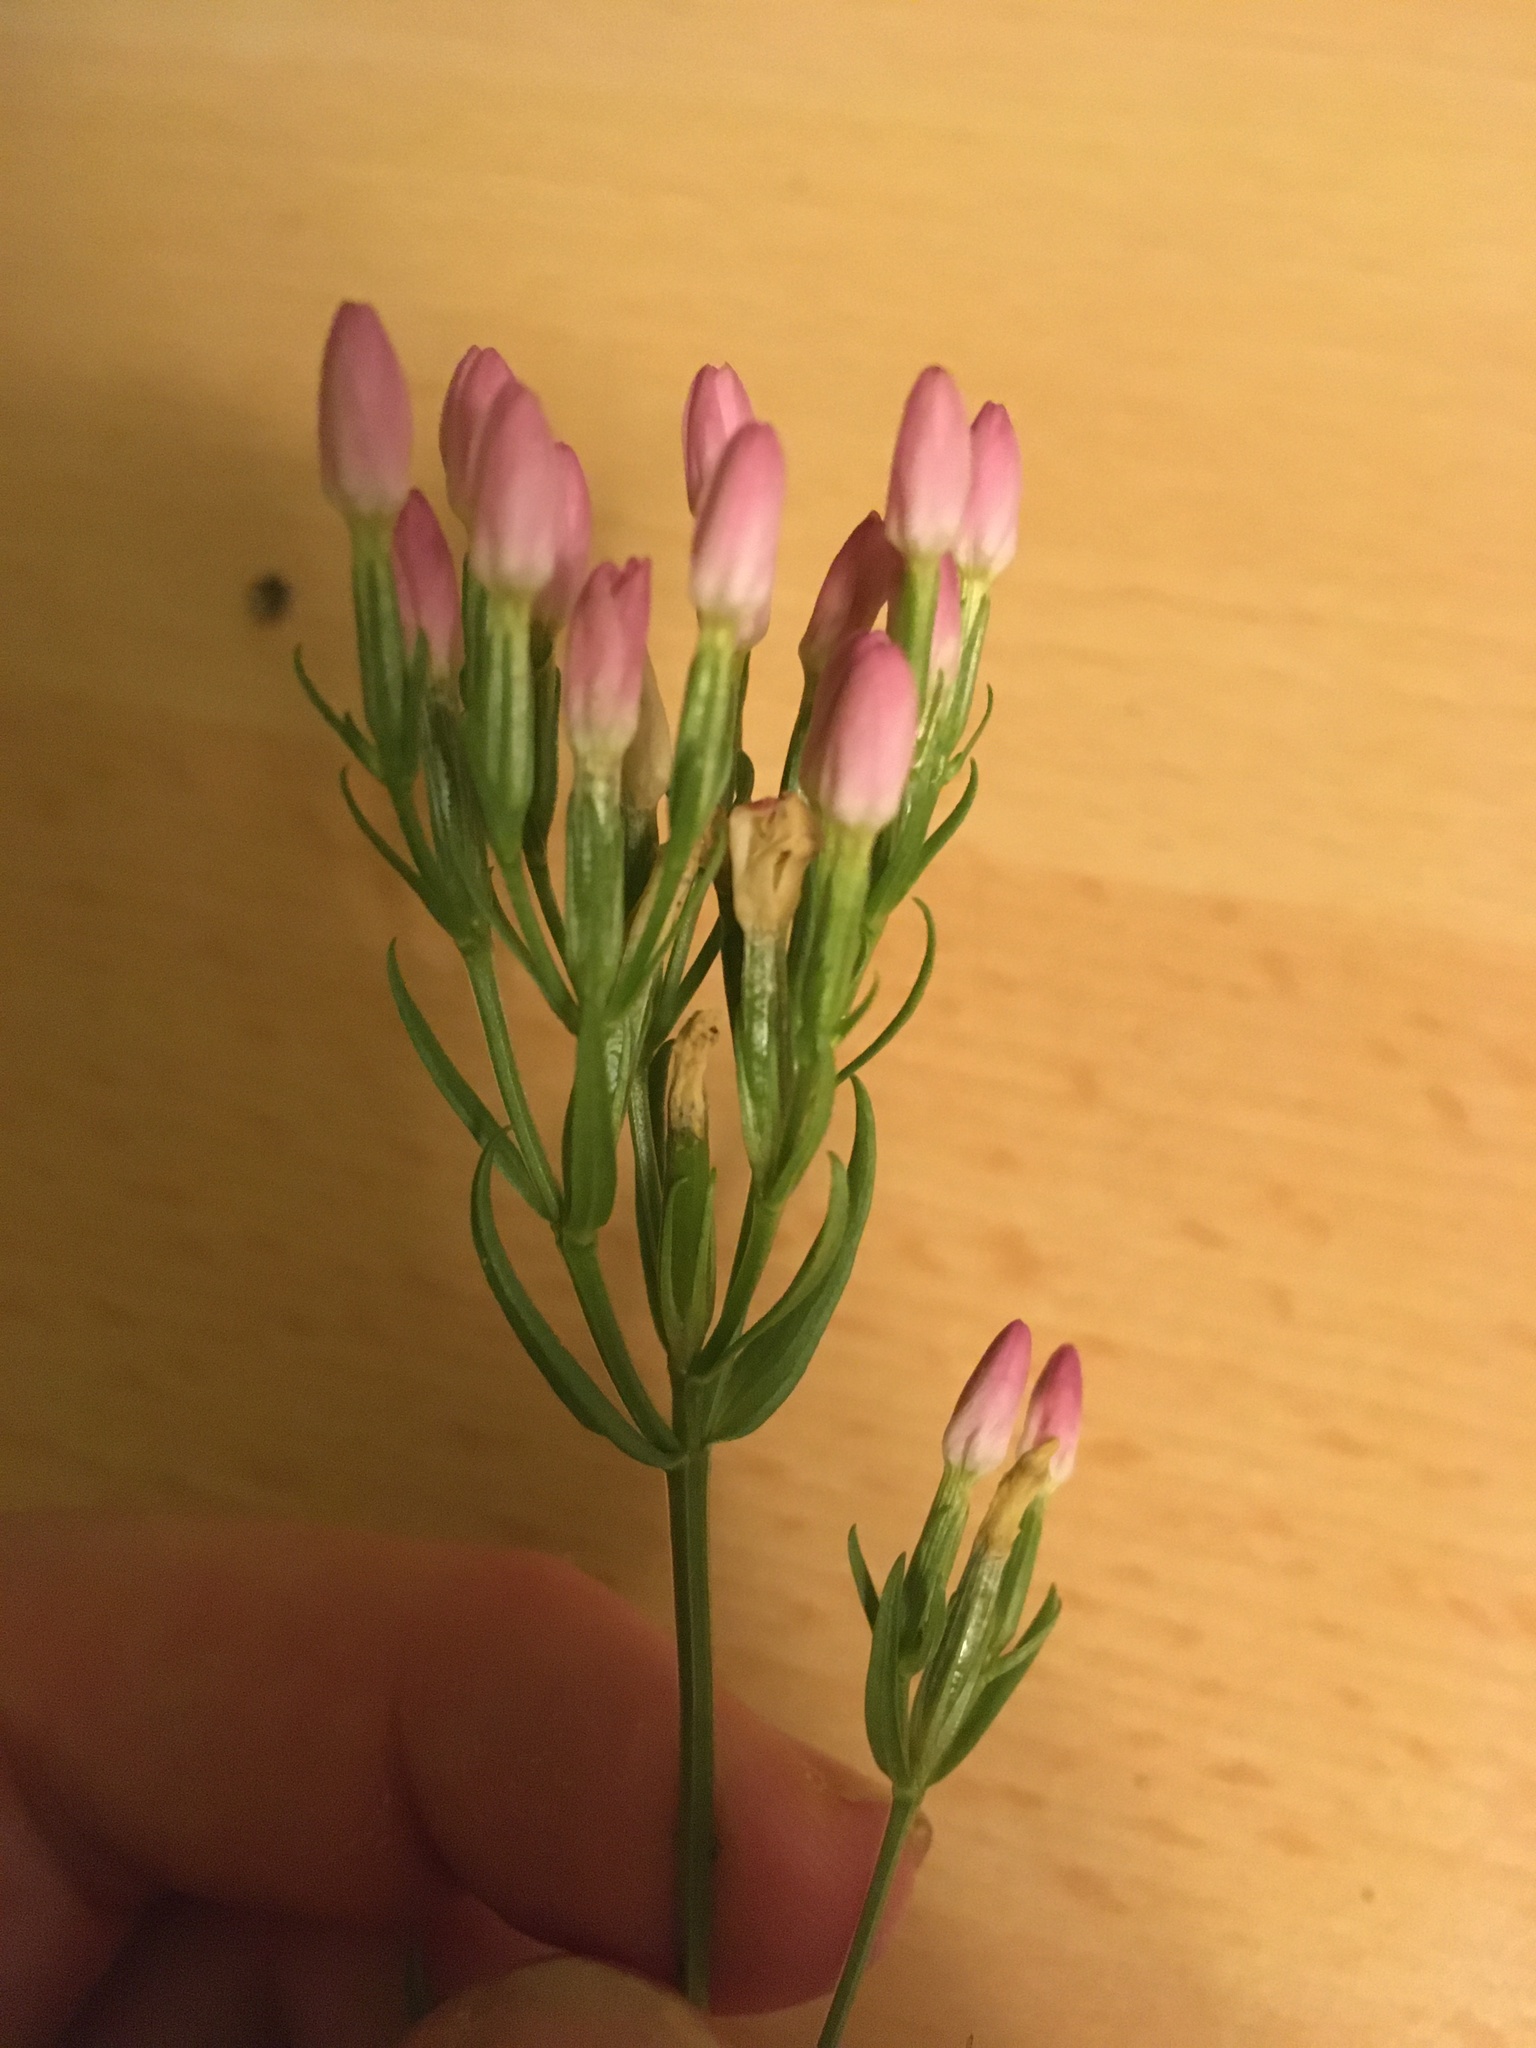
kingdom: Plantae
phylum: Tracheophyta
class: Magnoliopsida
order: Gentianales
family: Gentianaceae
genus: Centaurium
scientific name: Centaurium erythraea
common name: Common centaury
